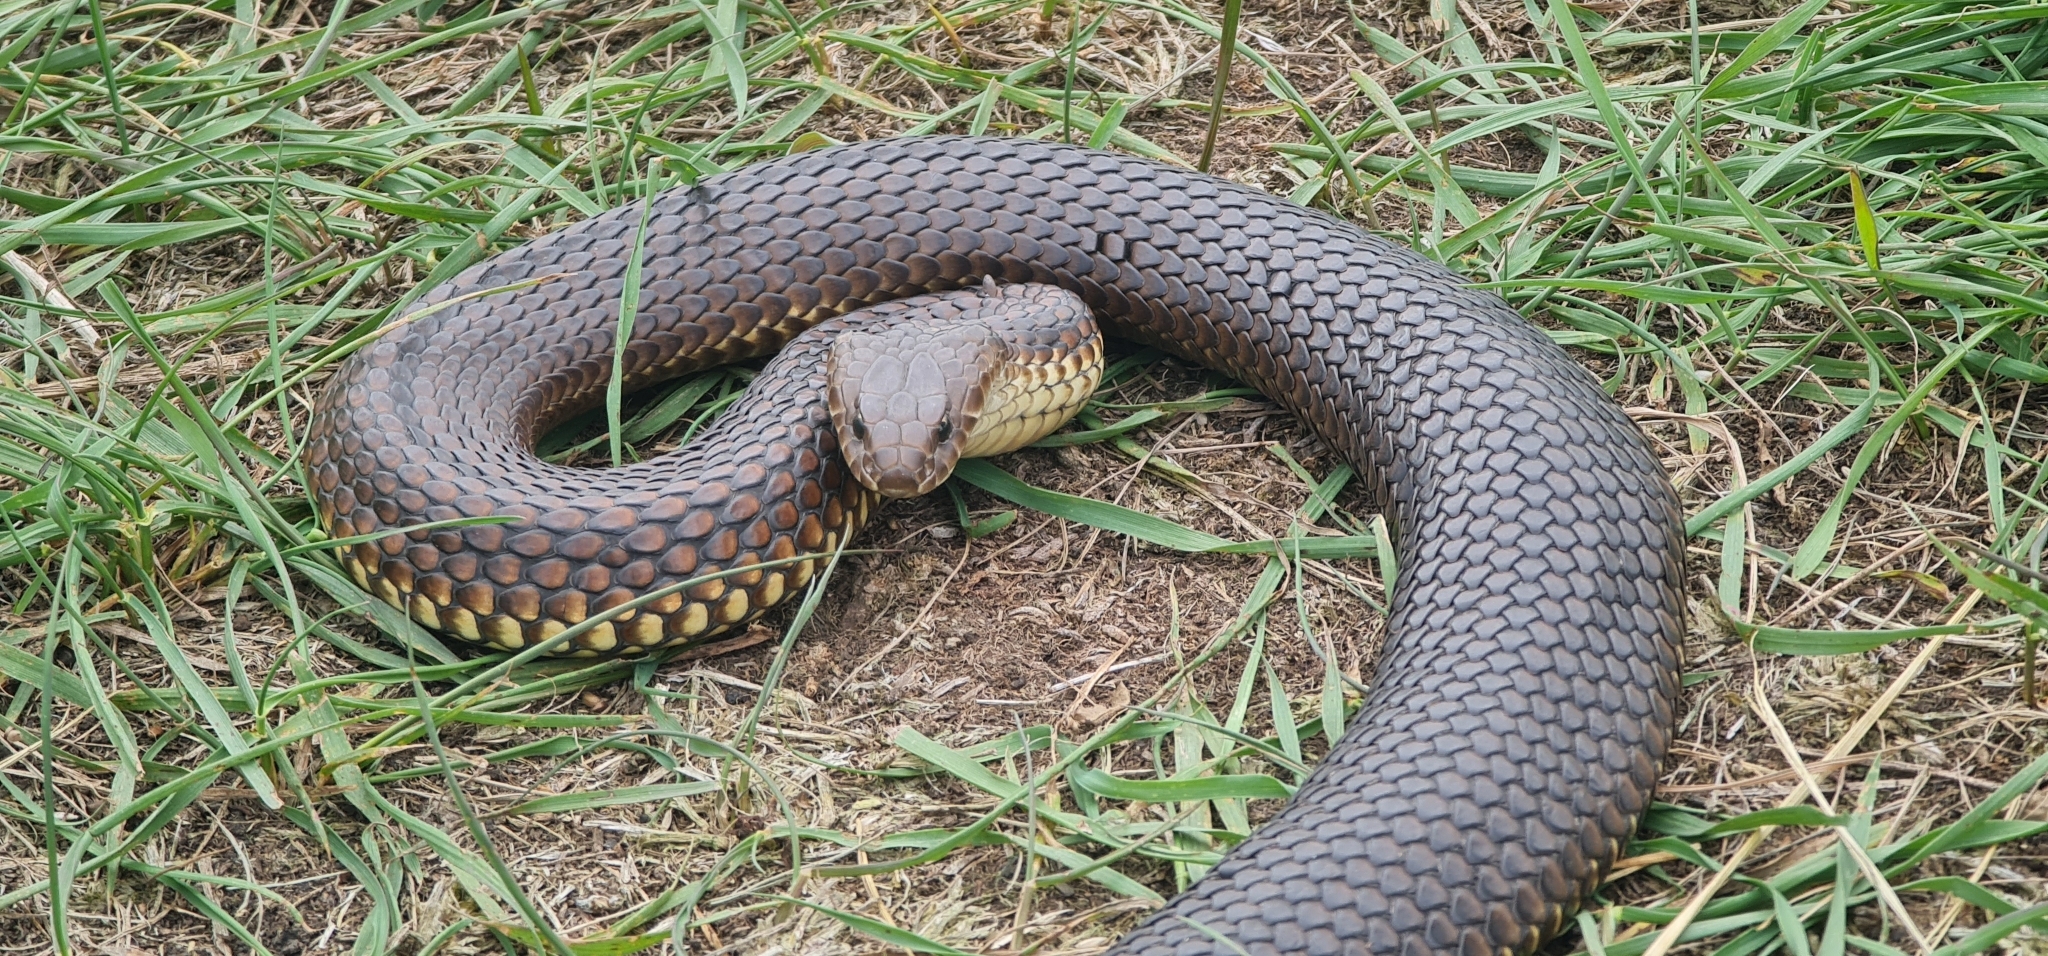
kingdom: Animalia
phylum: Chordata
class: Squamata
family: Elapidae
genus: Austrelaps
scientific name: Austrelaps ramsayi
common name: Highlands copperhead
